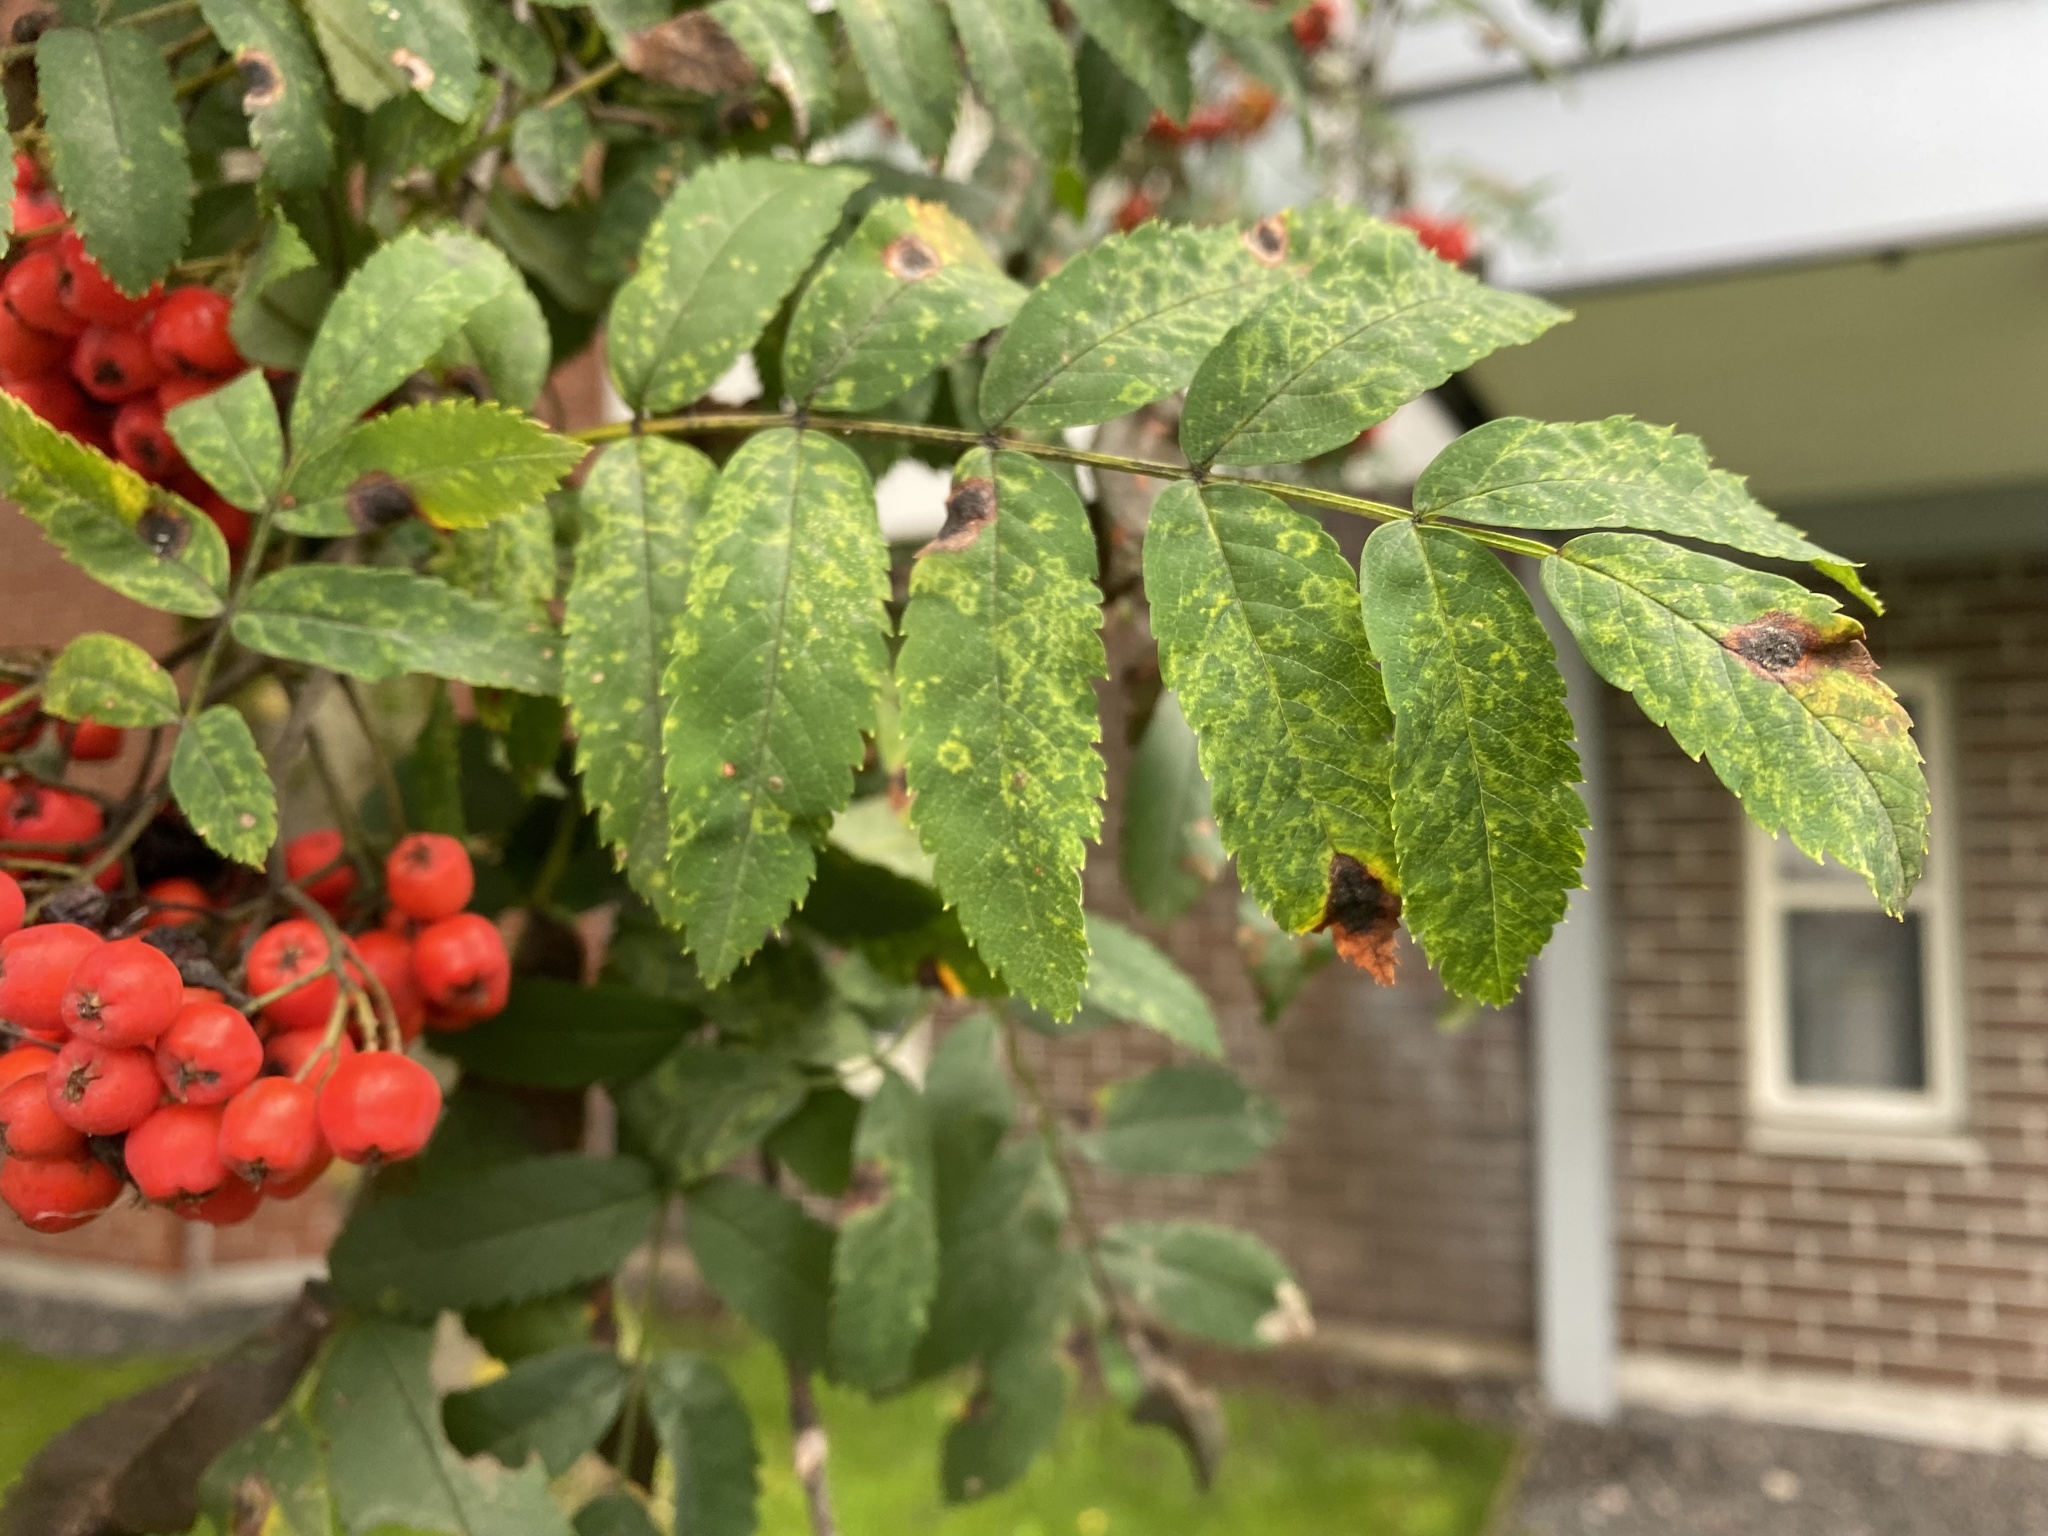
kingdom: Viruses
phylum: Negarnaviricota
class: Ellioviricetes
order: Bunyavirales
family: Fimoviridae
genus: Emaravirus
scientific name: Emaravirus sorbi
